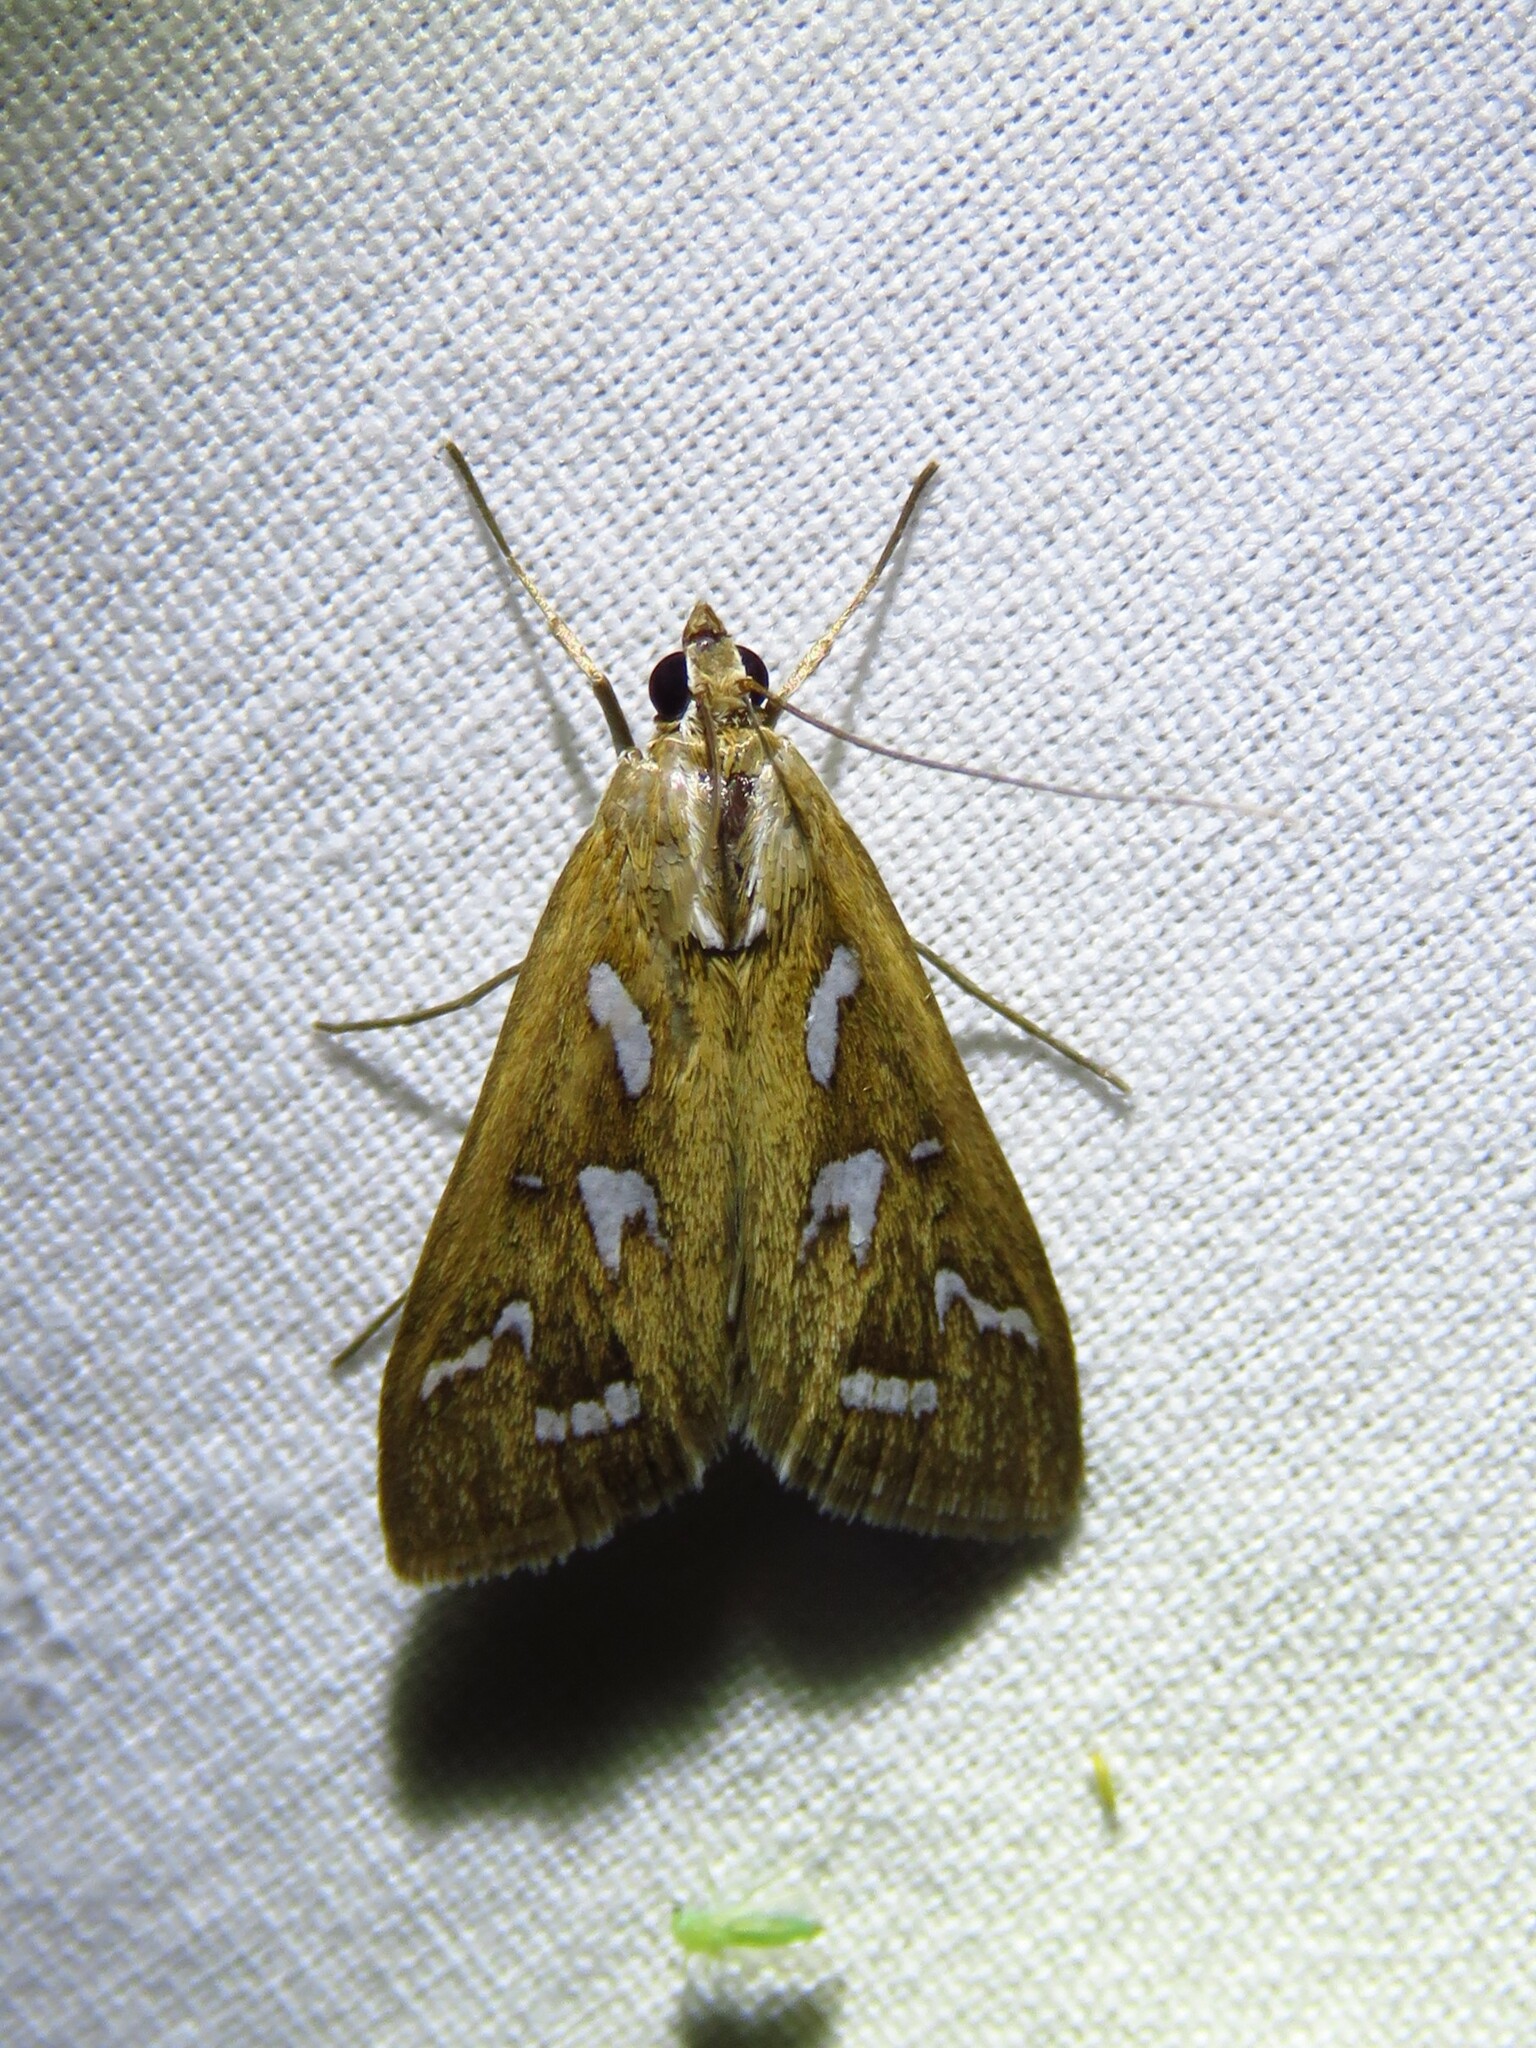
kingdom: Animalia
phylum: Arthropoda
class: Insecta
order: Lepidoptera
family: Crambidae
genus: Diastictis
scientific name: Diastictis fracturalis
